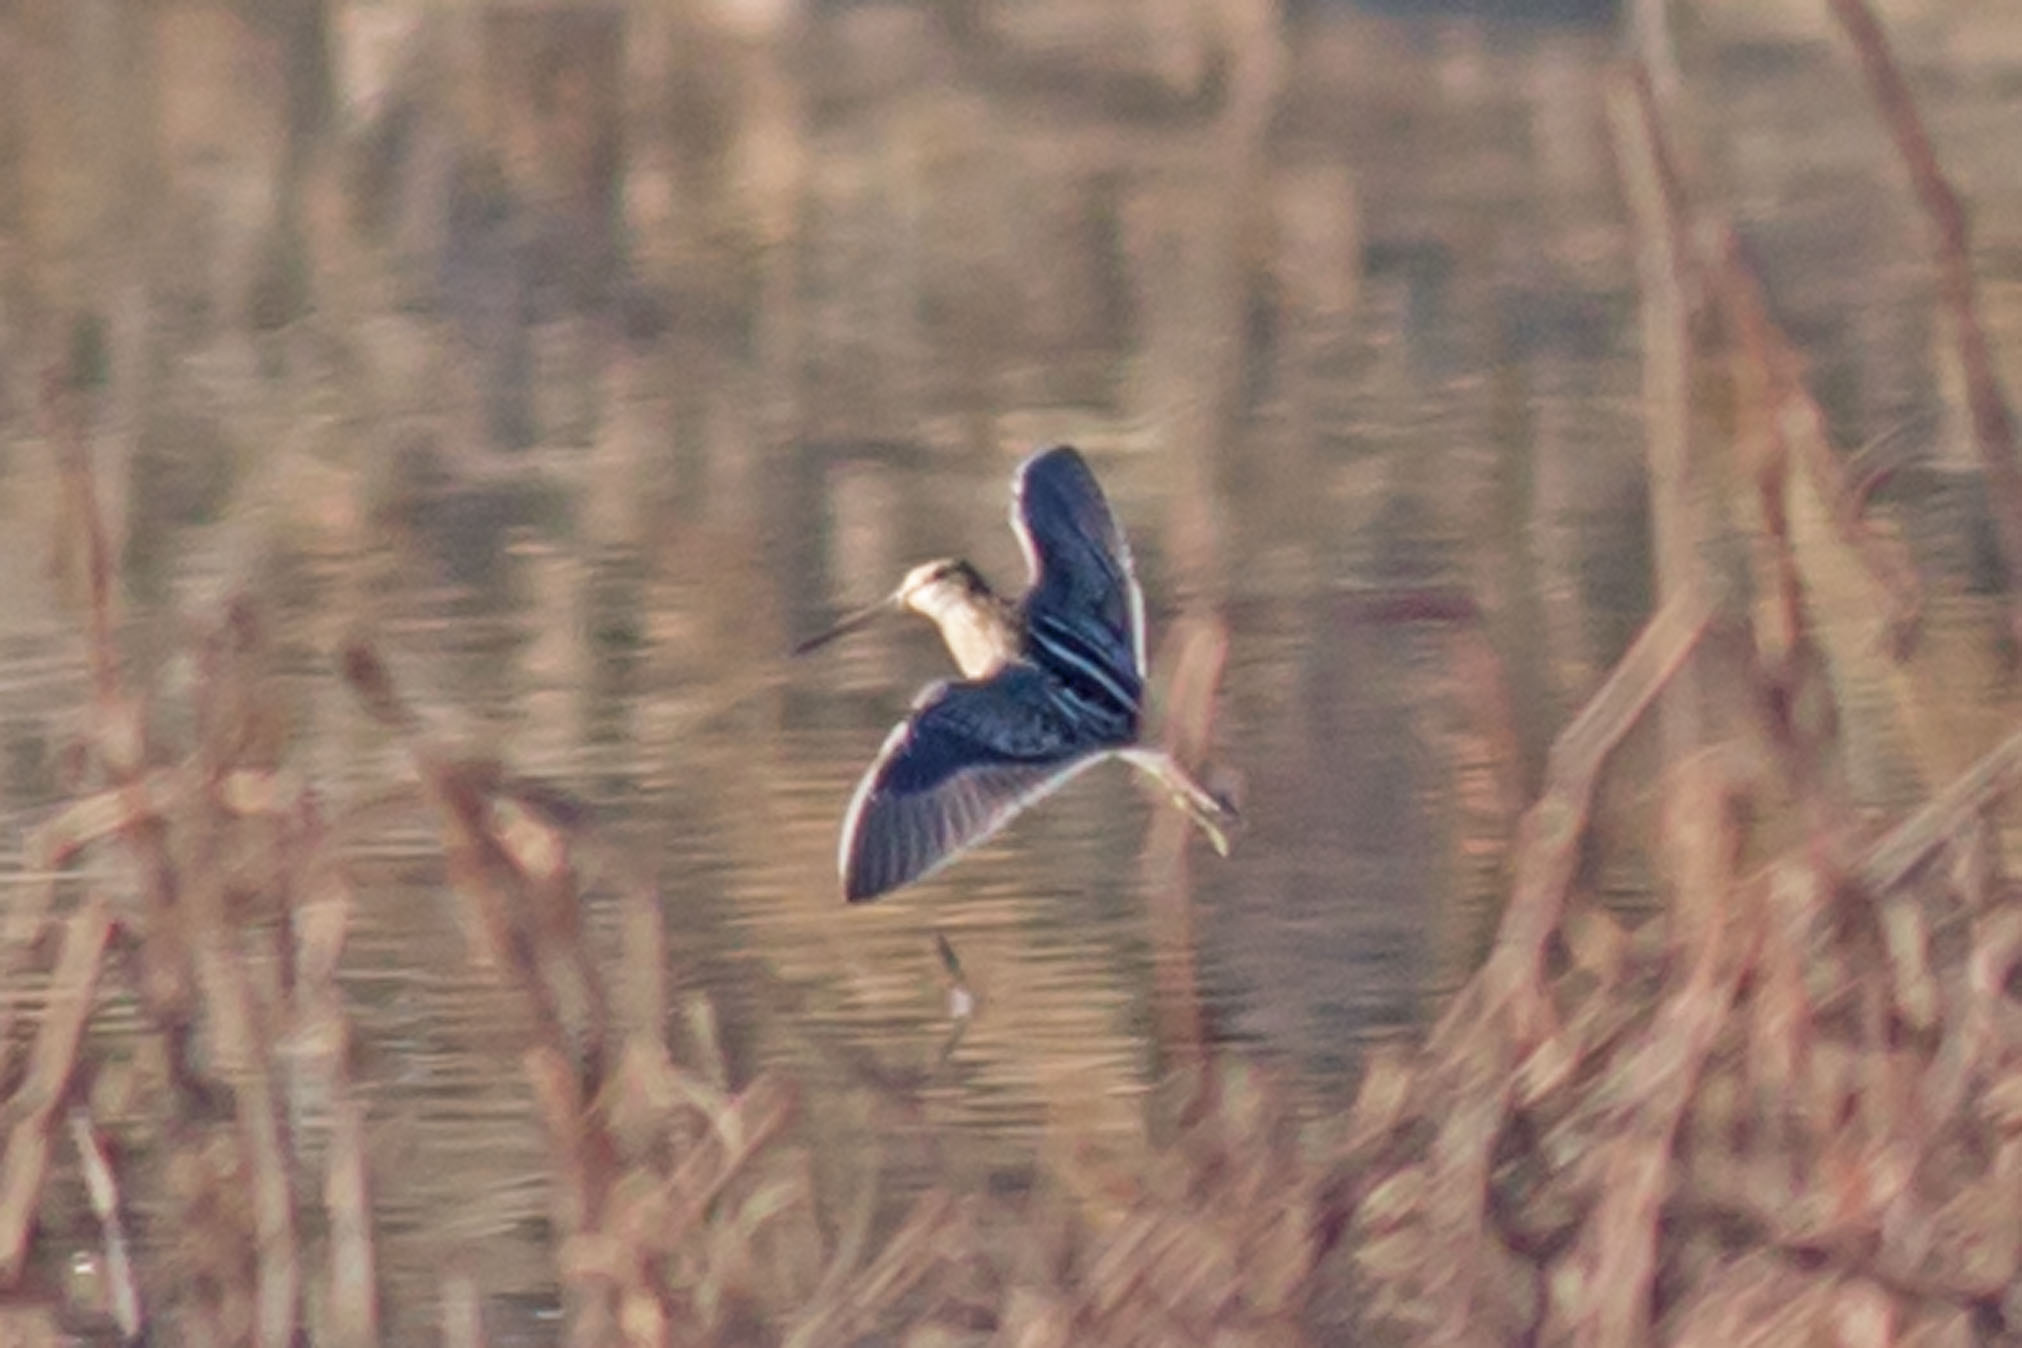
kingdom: Animalia
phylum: Chordata
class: Aves
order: Charadriiformes
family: Scolopacidae
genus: Gallinago
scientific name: Gallinago delicata
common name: Wilson's snipe
